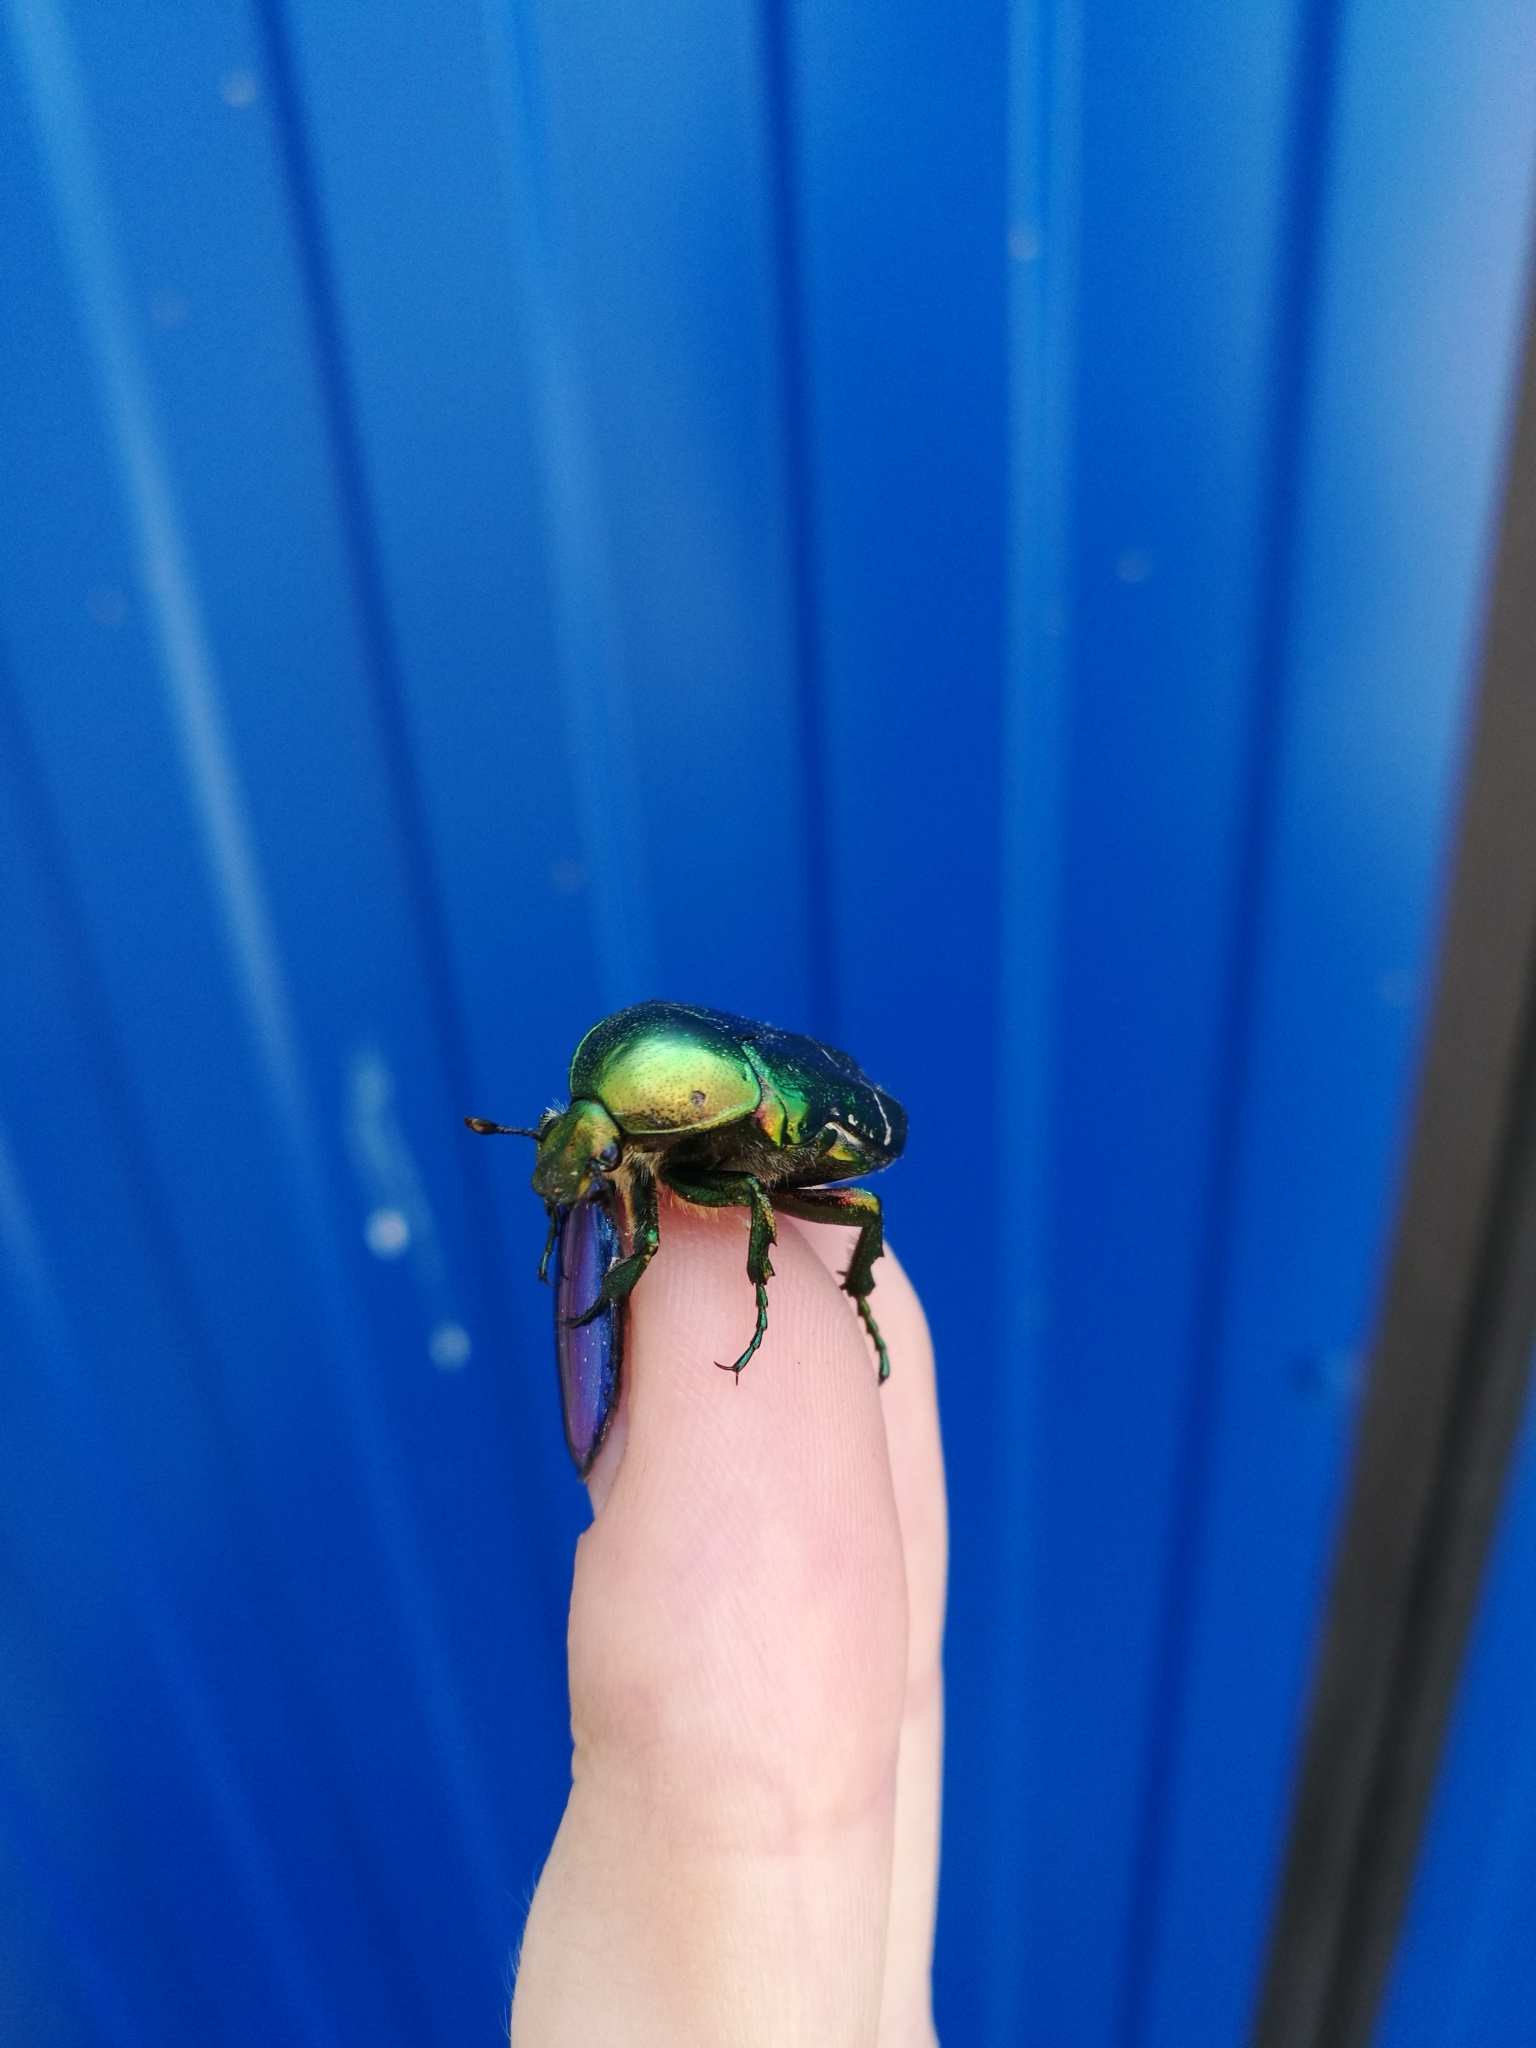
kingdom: Animalia
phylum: Arthropoda
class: Insecta
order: Coleoptera
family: Scarabaeidae
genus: Cetonia
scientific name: Cetonia aurata
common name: Rose chafer
